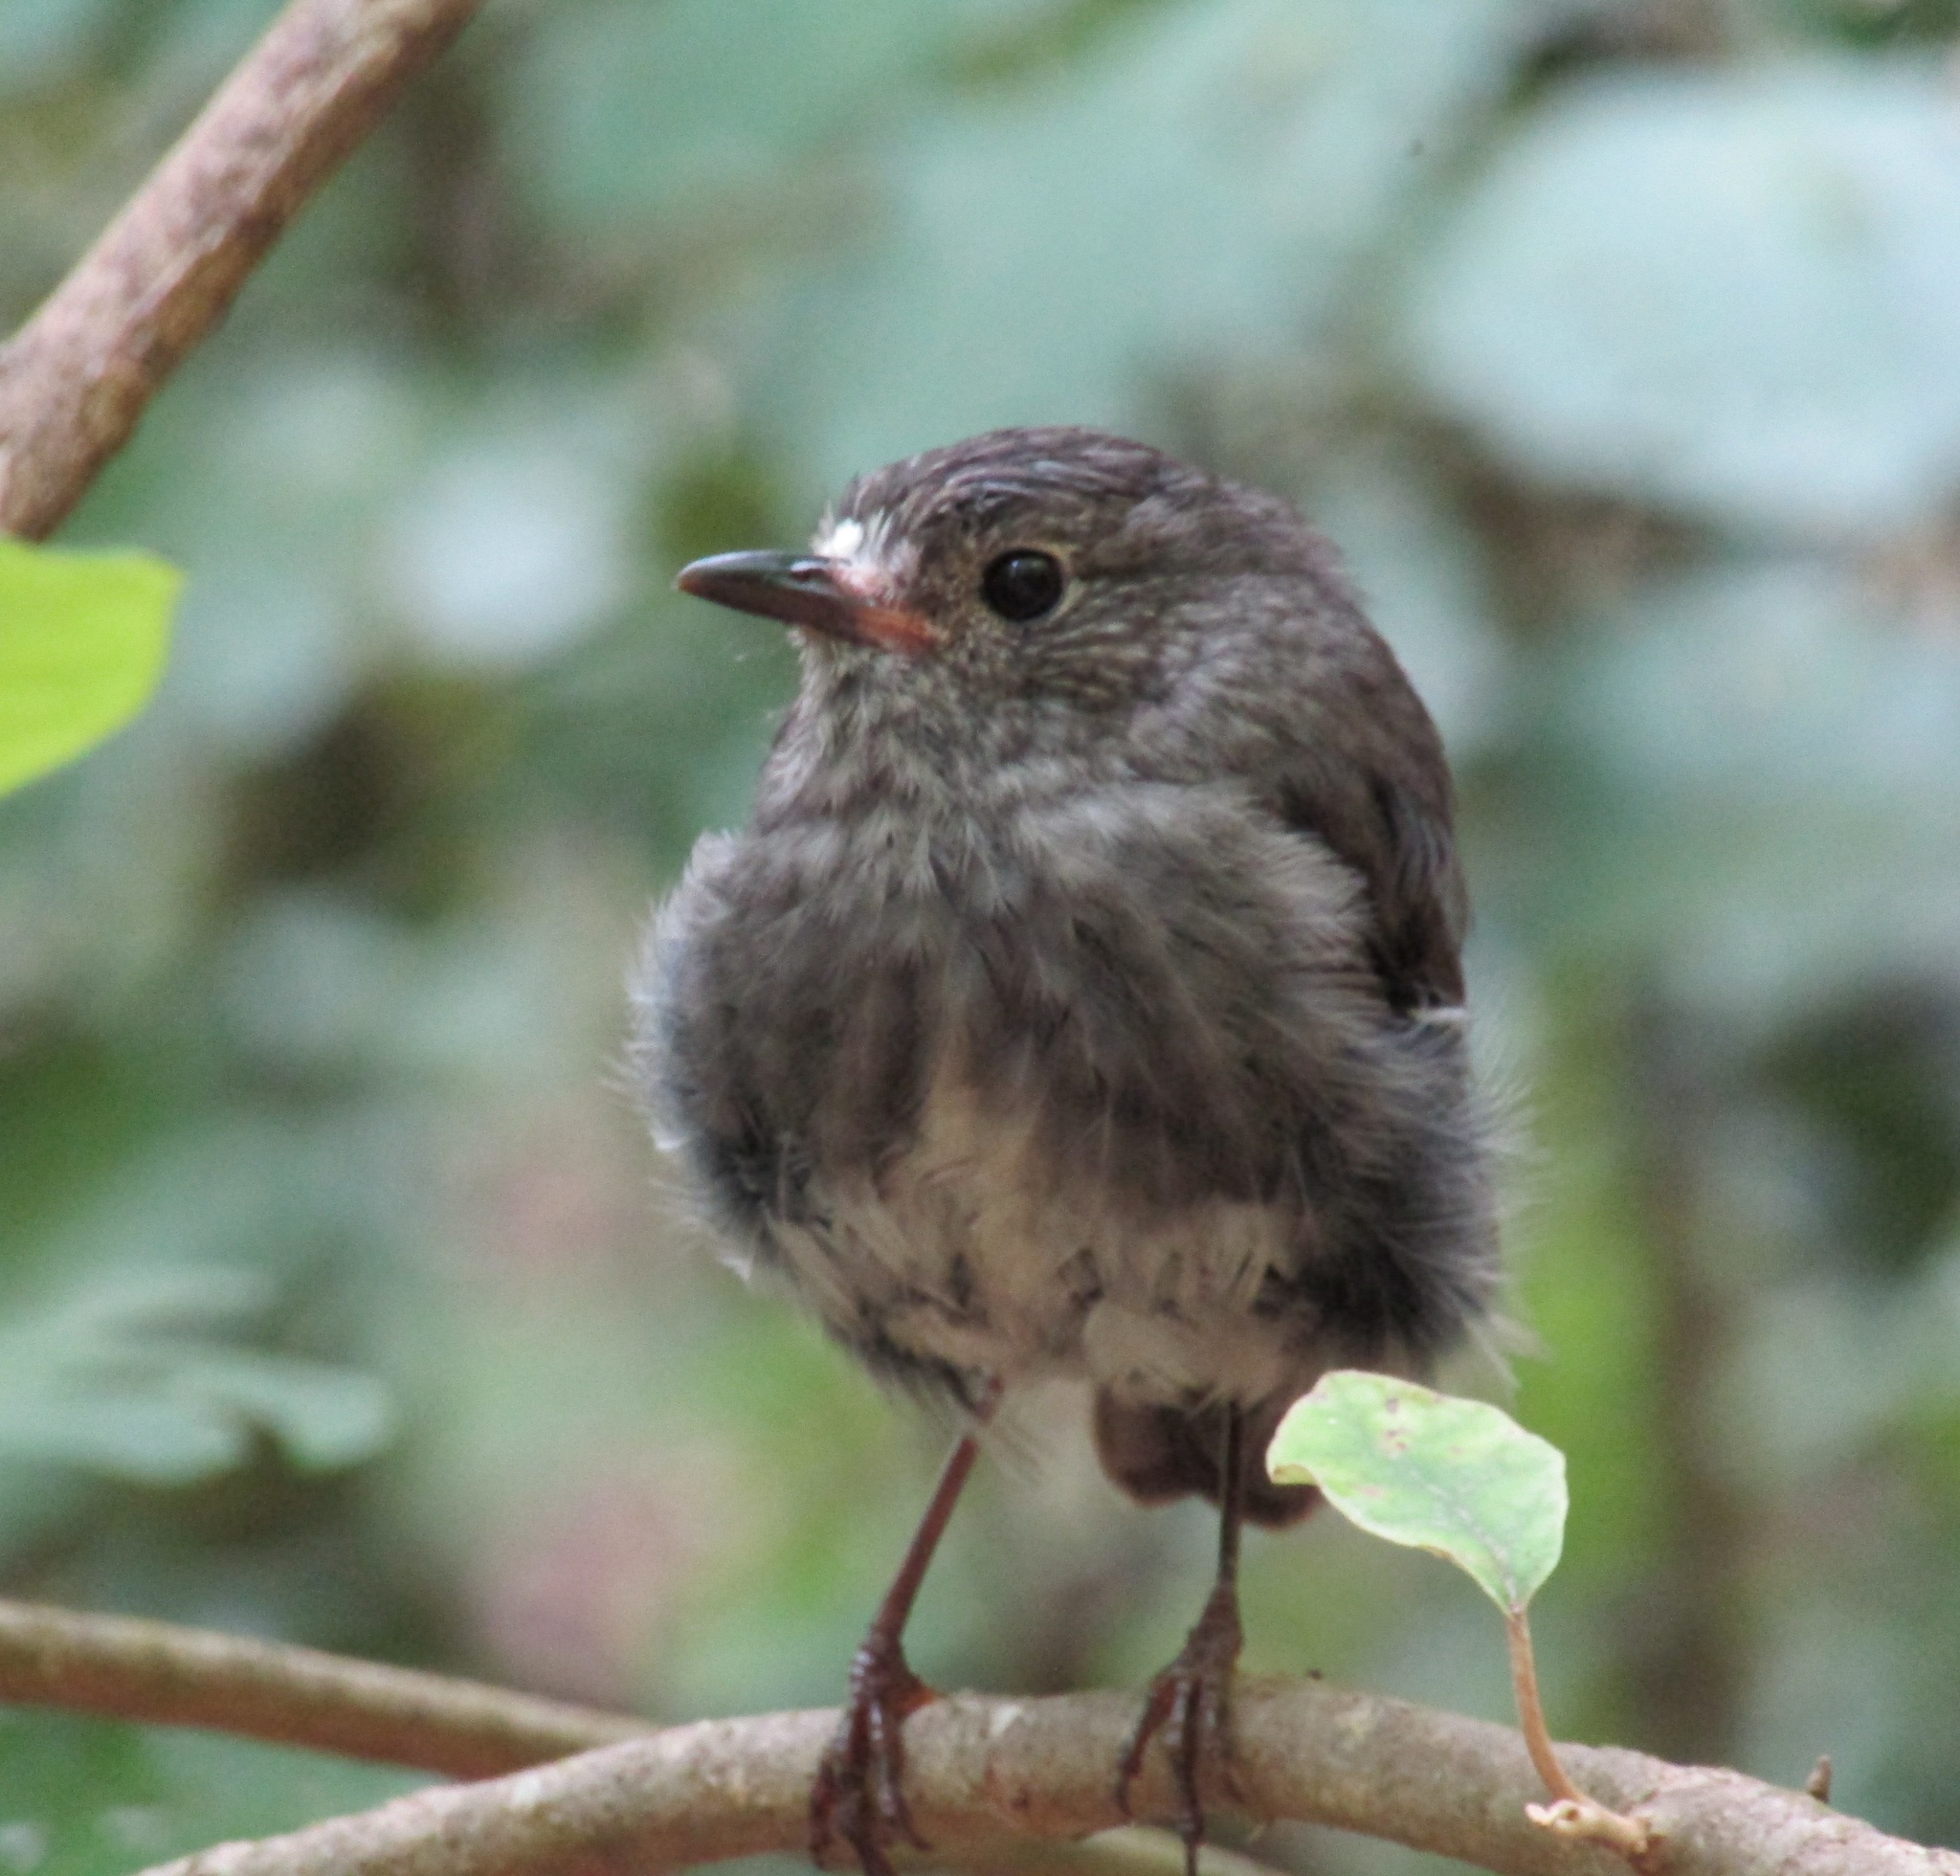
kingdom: Animalia
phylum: Chordata
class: Aves
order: Passeriformes
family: Petroicidae
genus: Petroica
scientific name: Petroica australis
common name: New zealand robin
